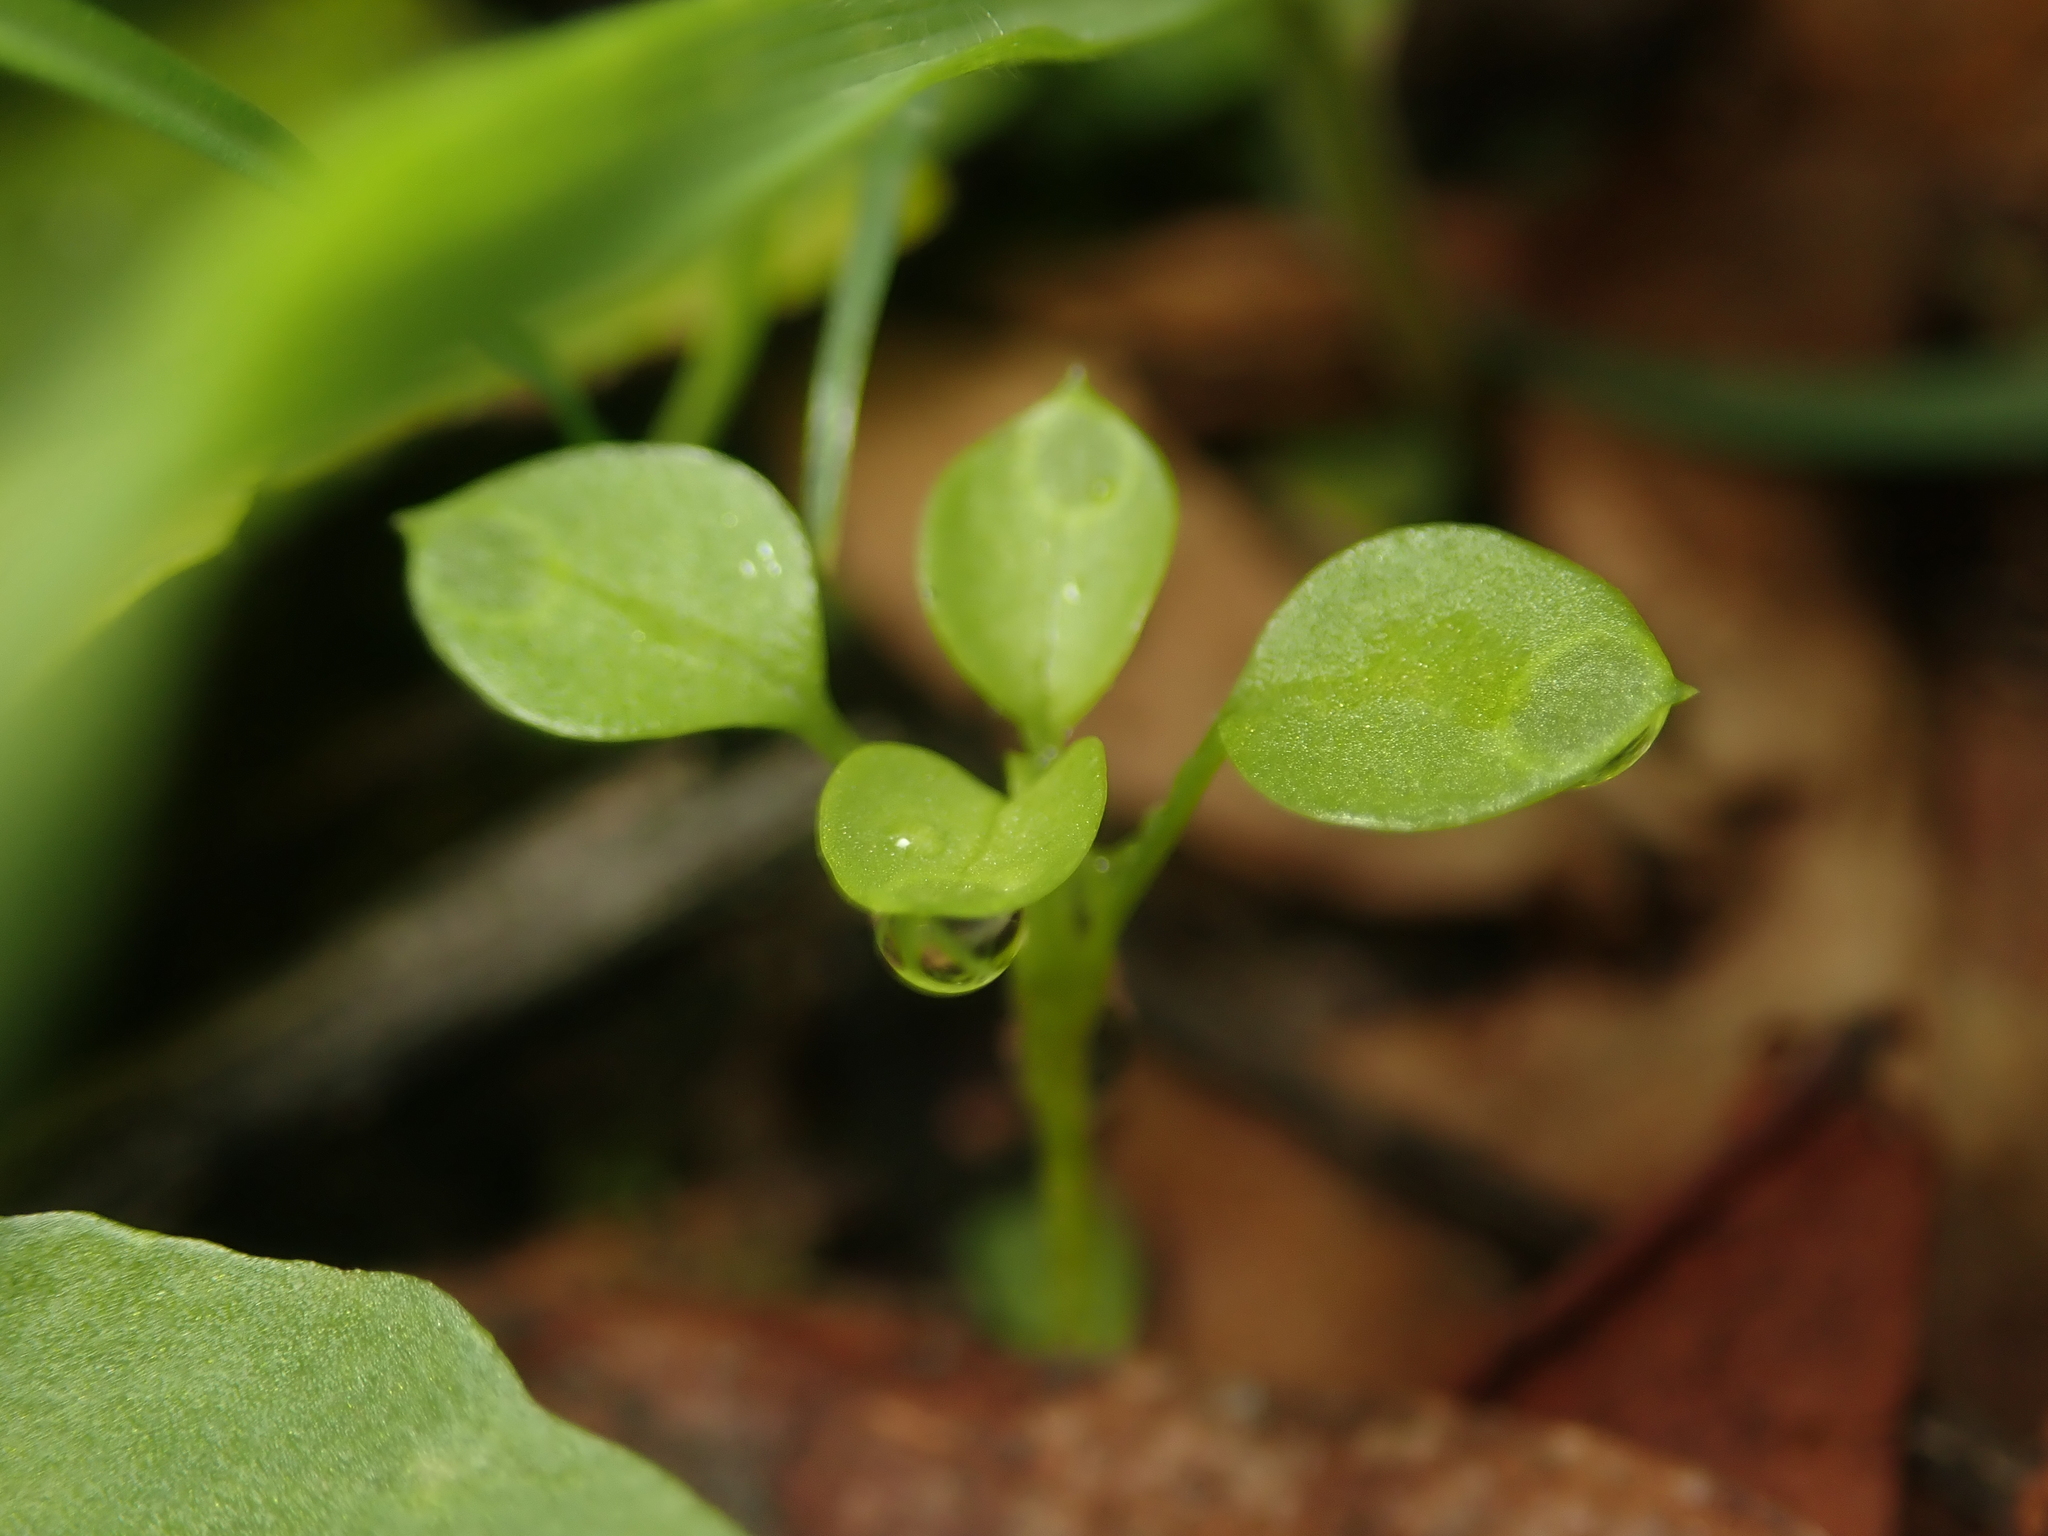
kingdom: Plantae
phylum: Tracheophyta
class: Magnoliopsida
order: Caryophyllales
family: Caryophyllaceae
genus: Stellaria
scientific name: Stellaria media
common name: Common chickweed
